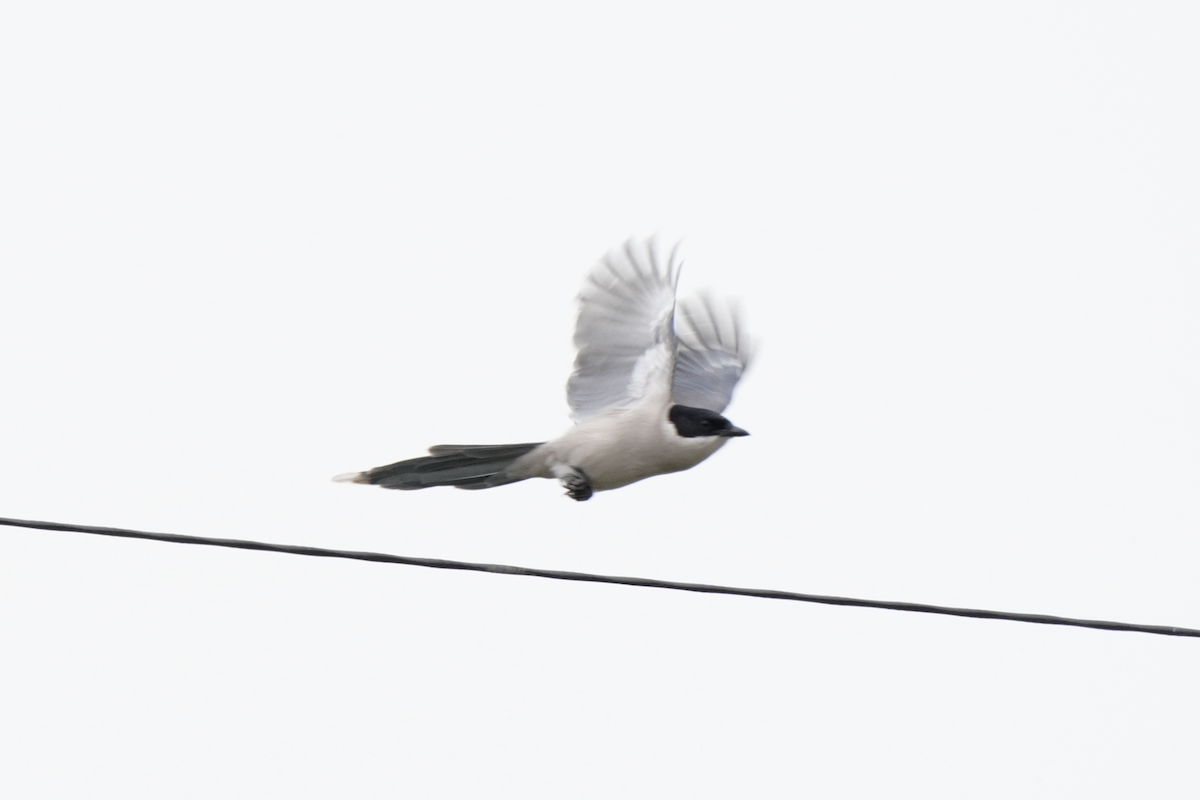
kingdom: Animalia
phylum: Chordata
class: Aves
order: Passeriformes
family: Corvidae
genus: Cyanopica
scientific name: Cyanopica cyanus
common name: Azure-winged magpie
